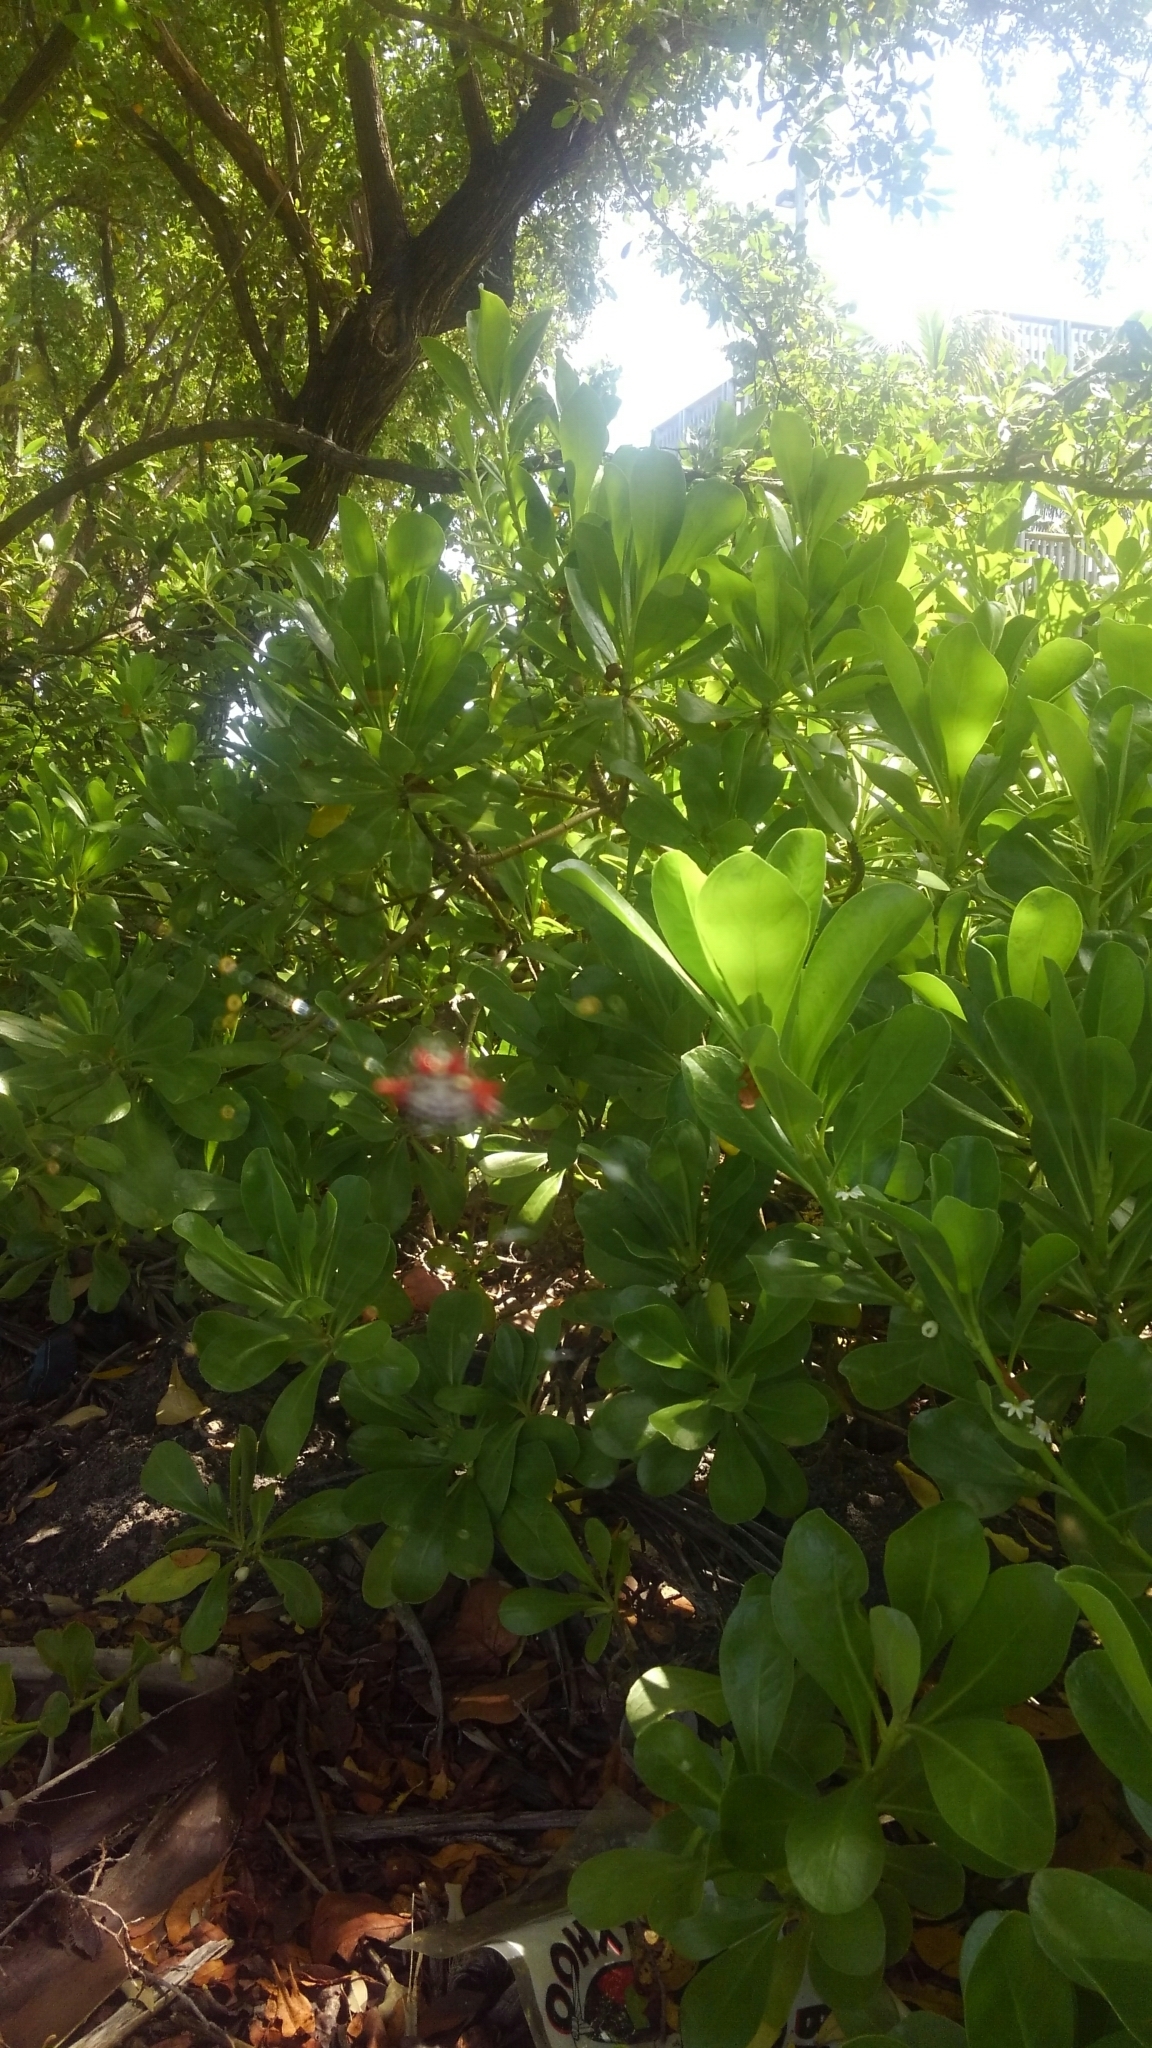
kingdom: Animalia
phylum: Arthropoda
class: Arachnida
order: Araneae
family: Araneidae
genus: Gasteracantha
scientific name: Gasteracantha cancriformis
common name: Orb weavers
